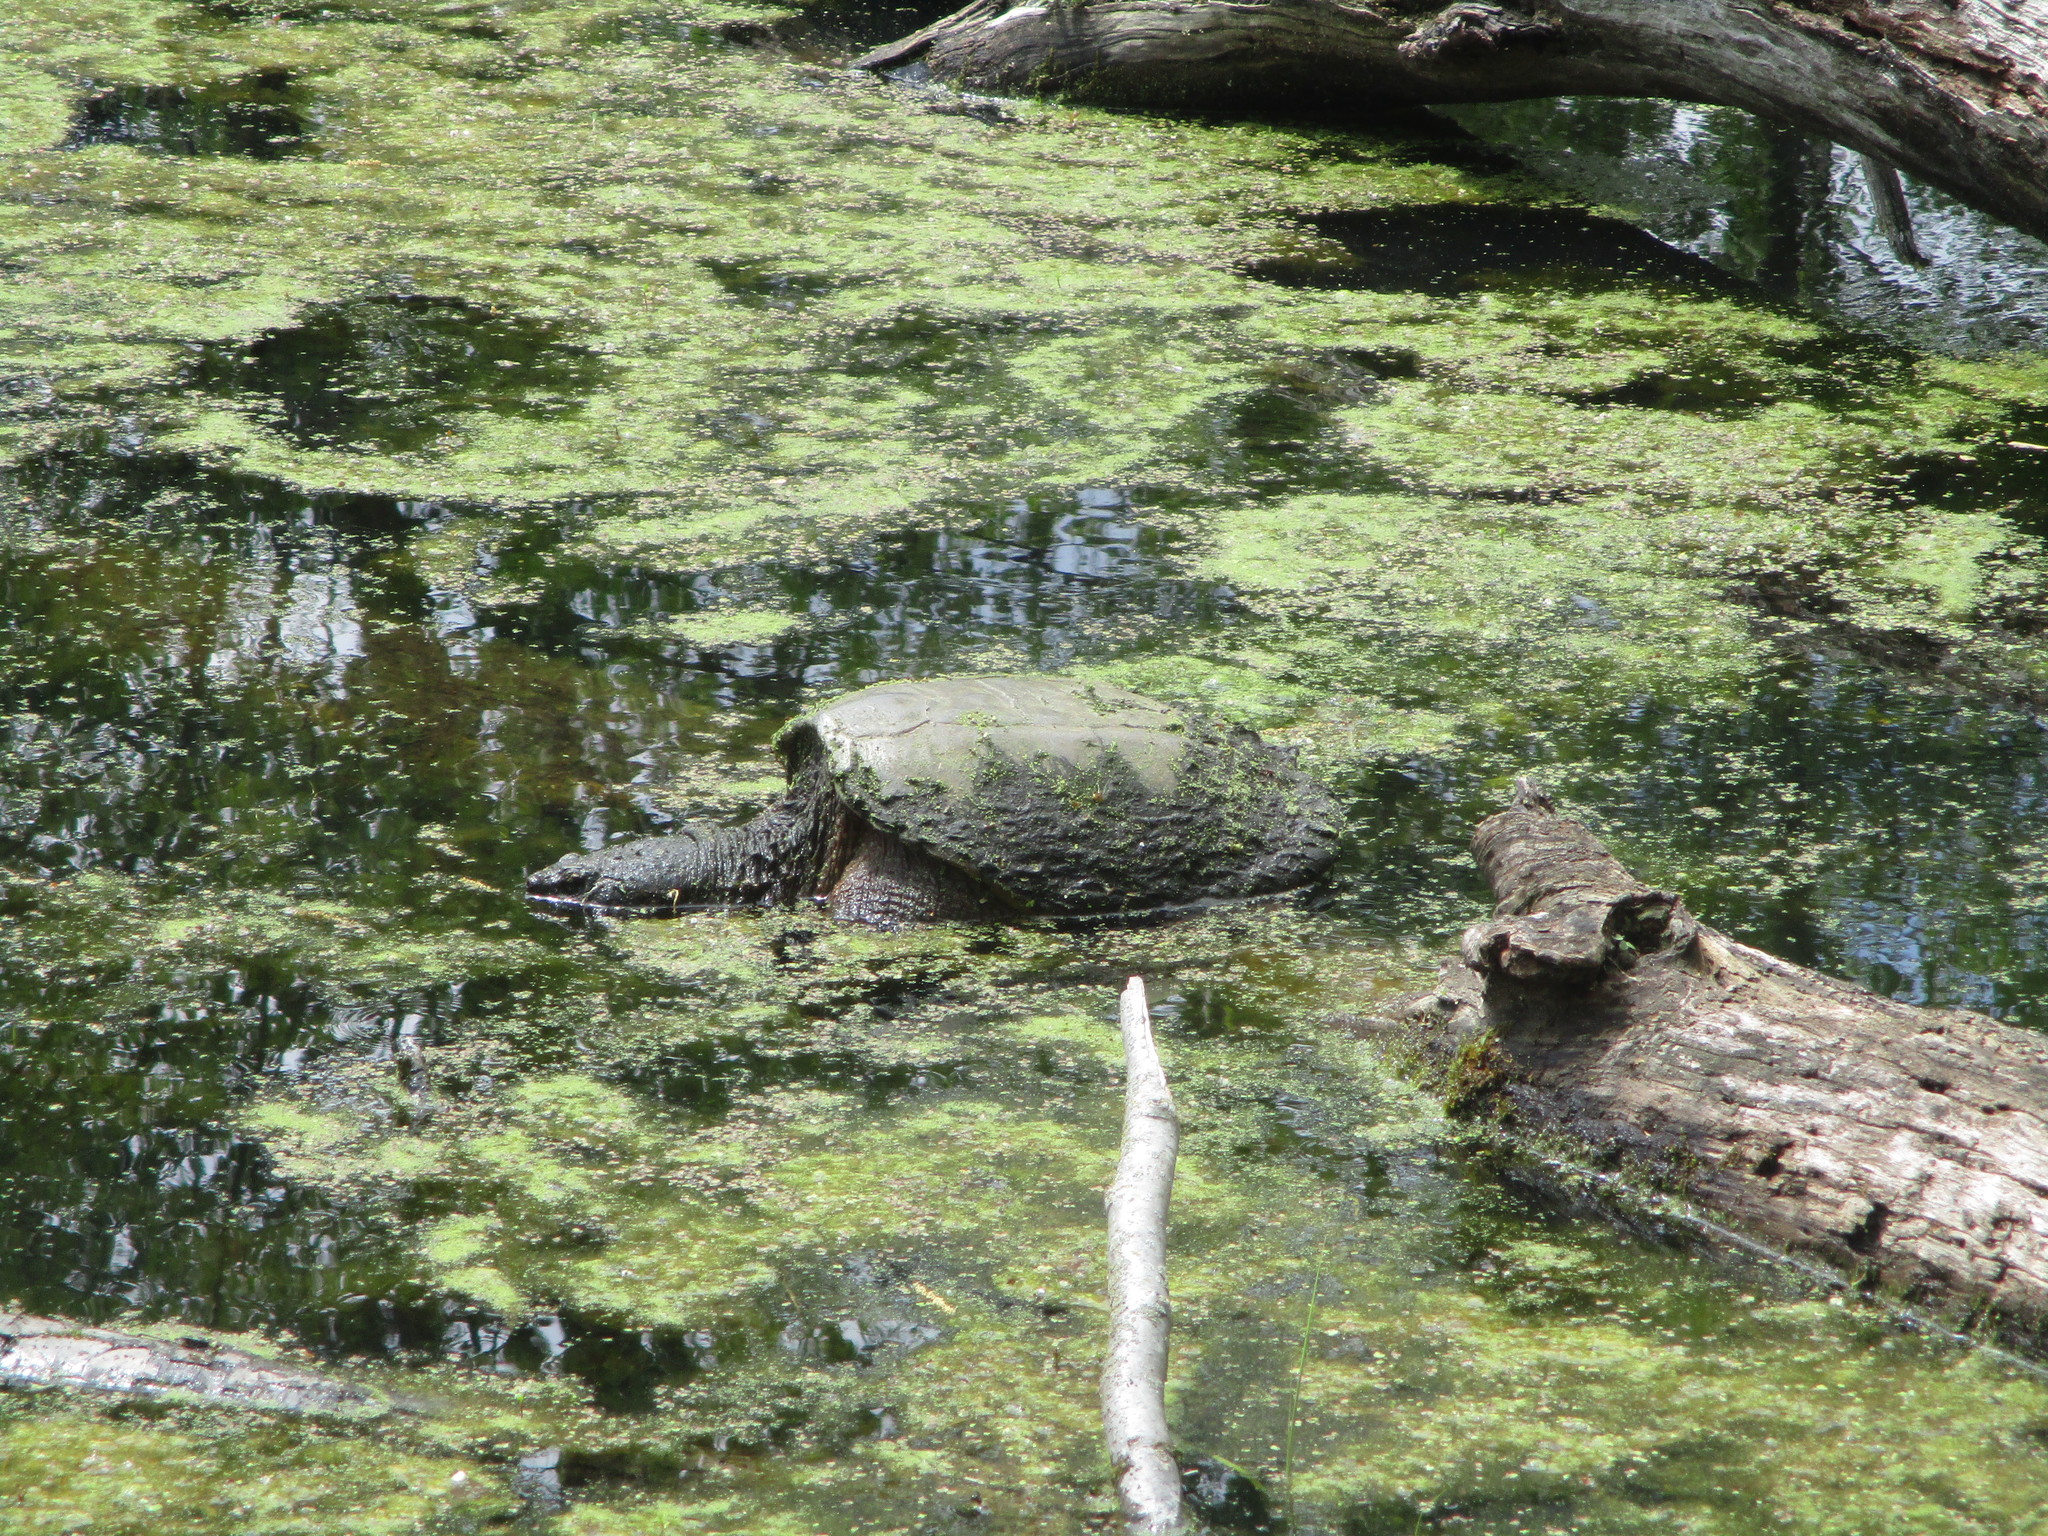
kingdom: Animalia
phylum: Chordata
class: Testudines
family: Chelydridae
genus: Chelydra
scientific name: Chelydra serpentina
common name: Common snapping turtle
